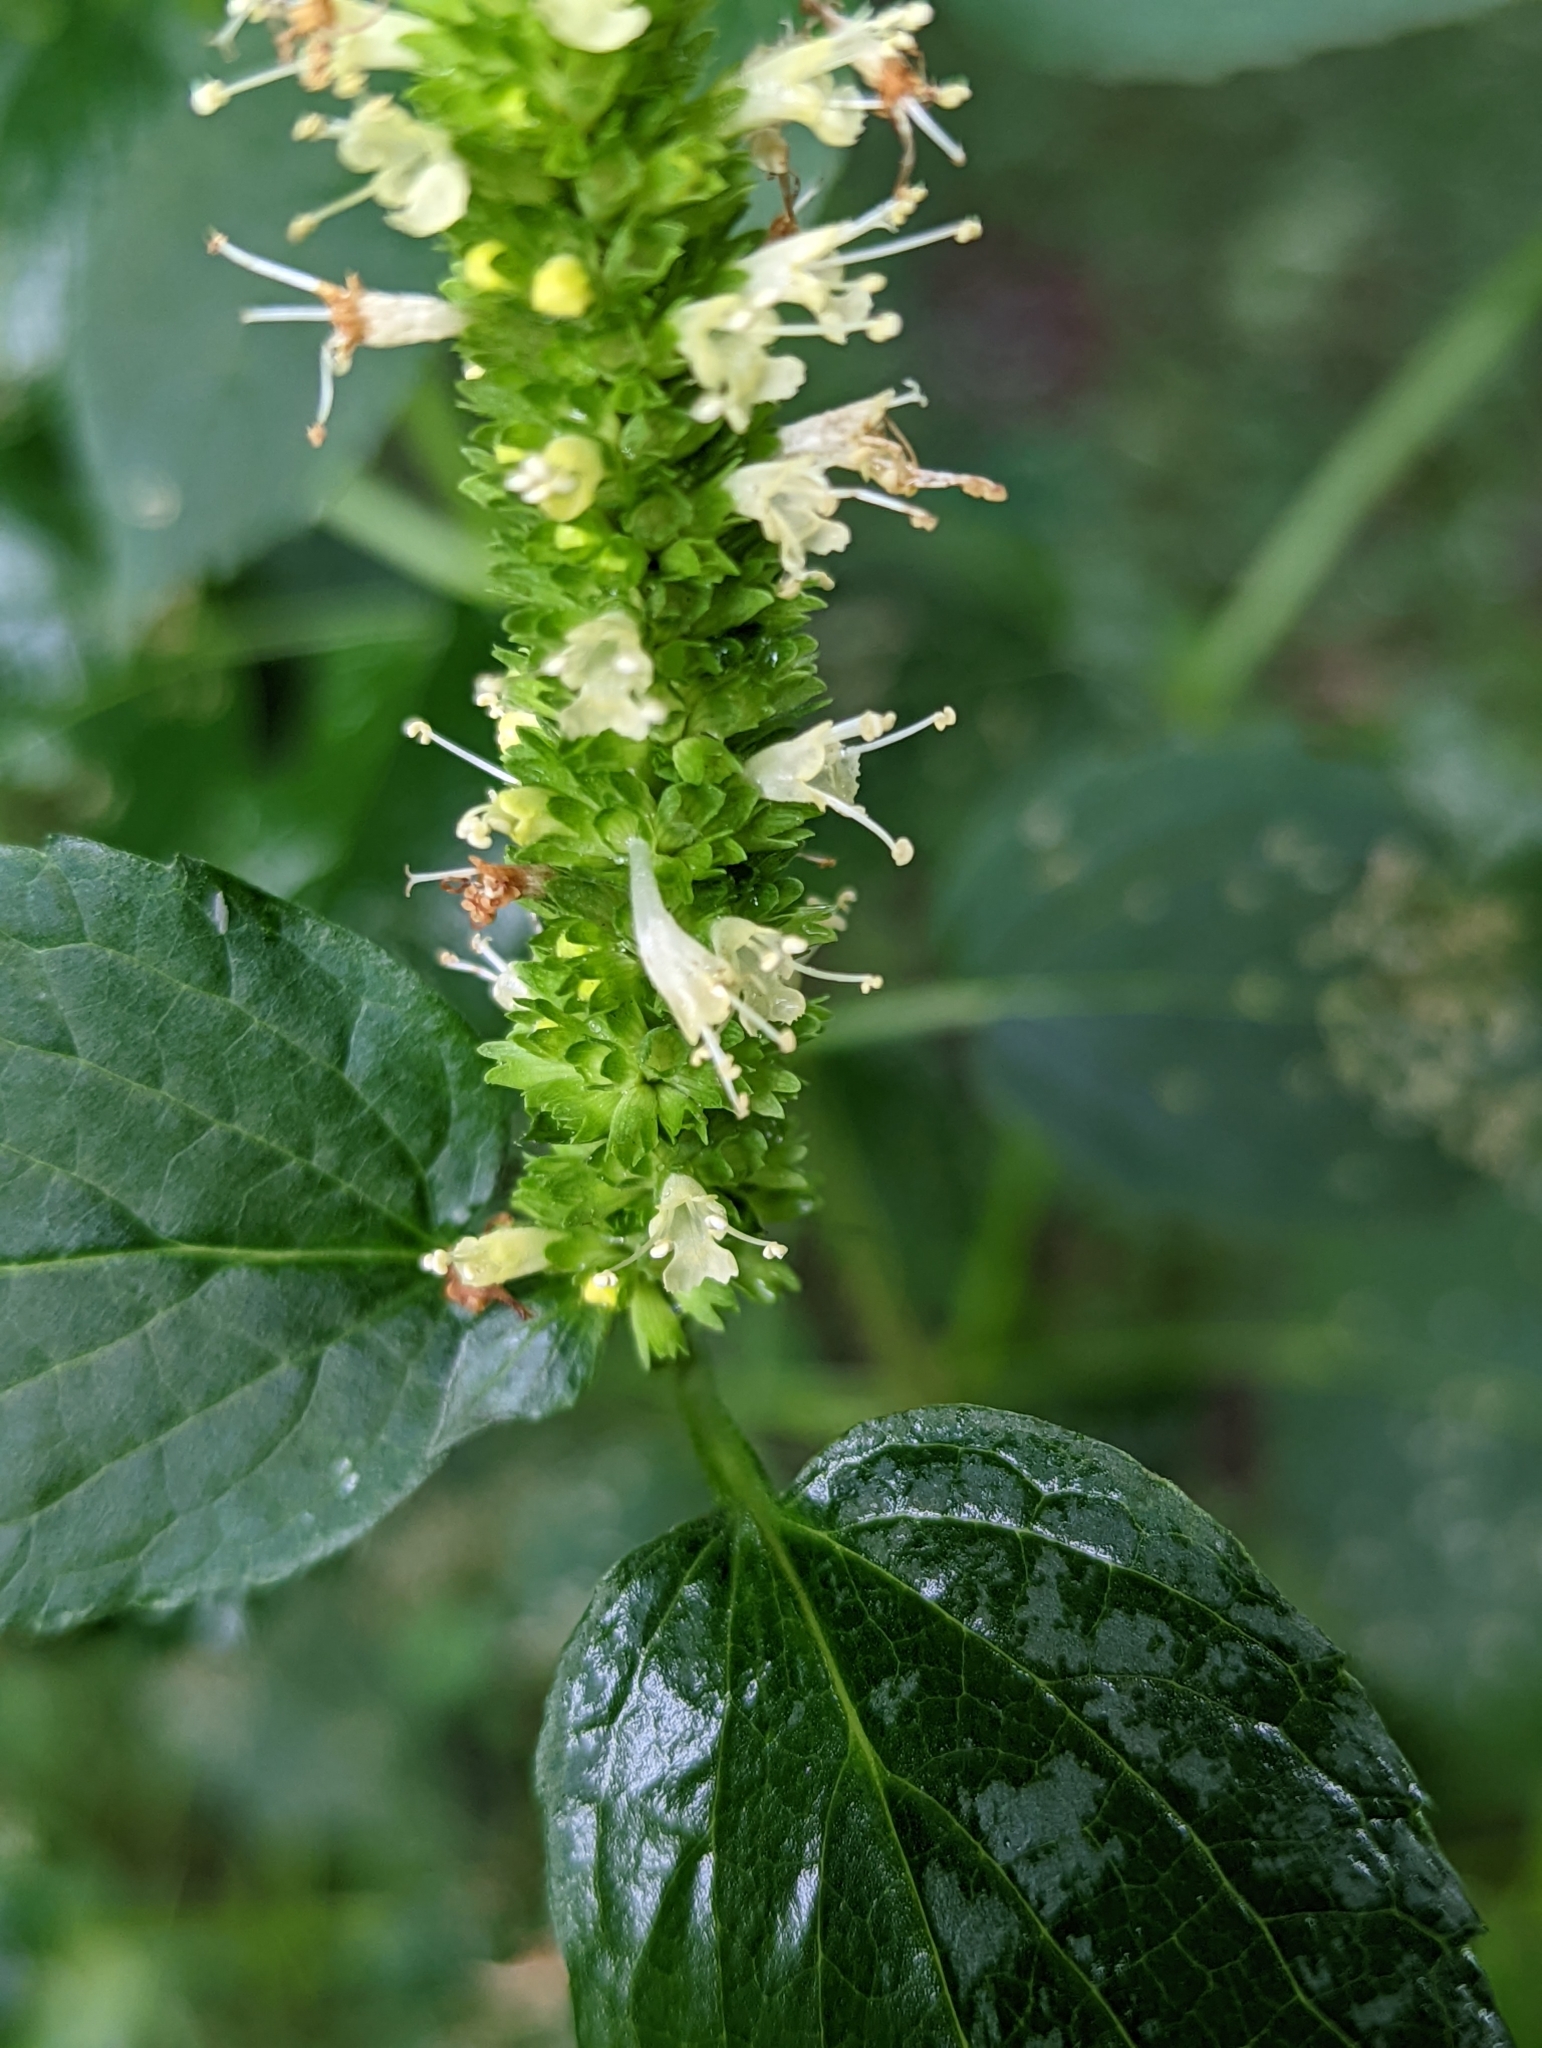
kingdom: Plantae
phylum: Tracheophyta
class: Magnoliopsida
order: Lamiales
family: Lamiaceae
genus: Agastache
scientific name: Agastache nepetoides
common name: Catnip giant hyssop
